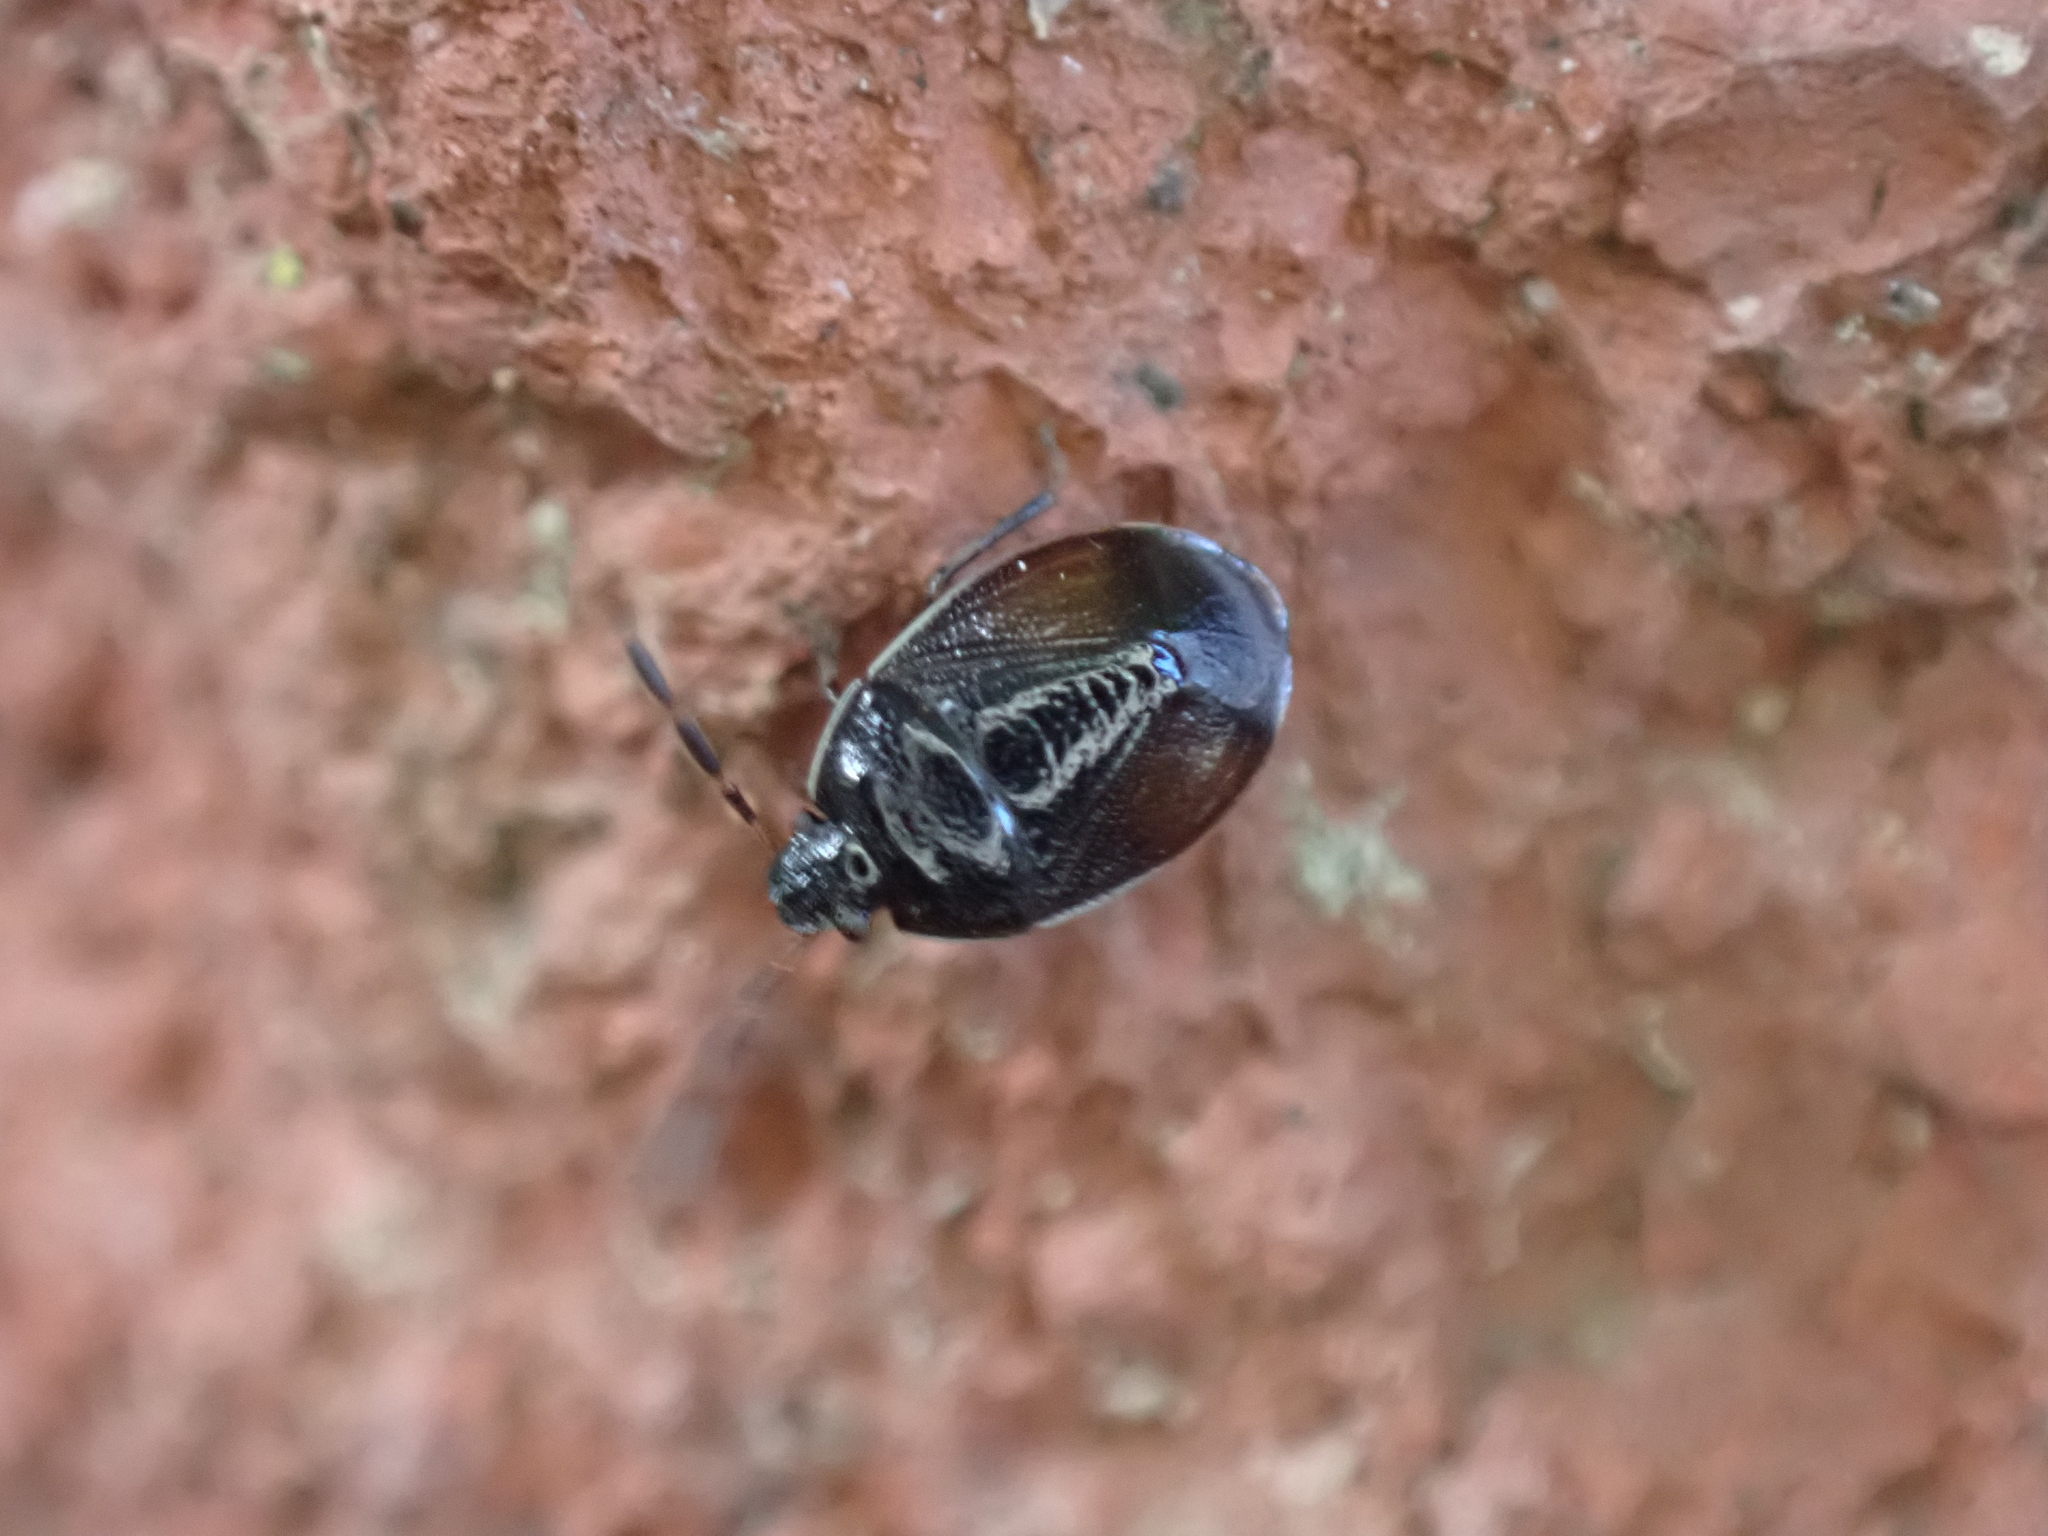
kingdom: Animalia
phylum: Arthropoda
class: Insecta
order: Hemiptera
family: Cydnidae
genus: Sehirus
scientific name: Sehirus cinctus
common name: White-margined burrower bug
